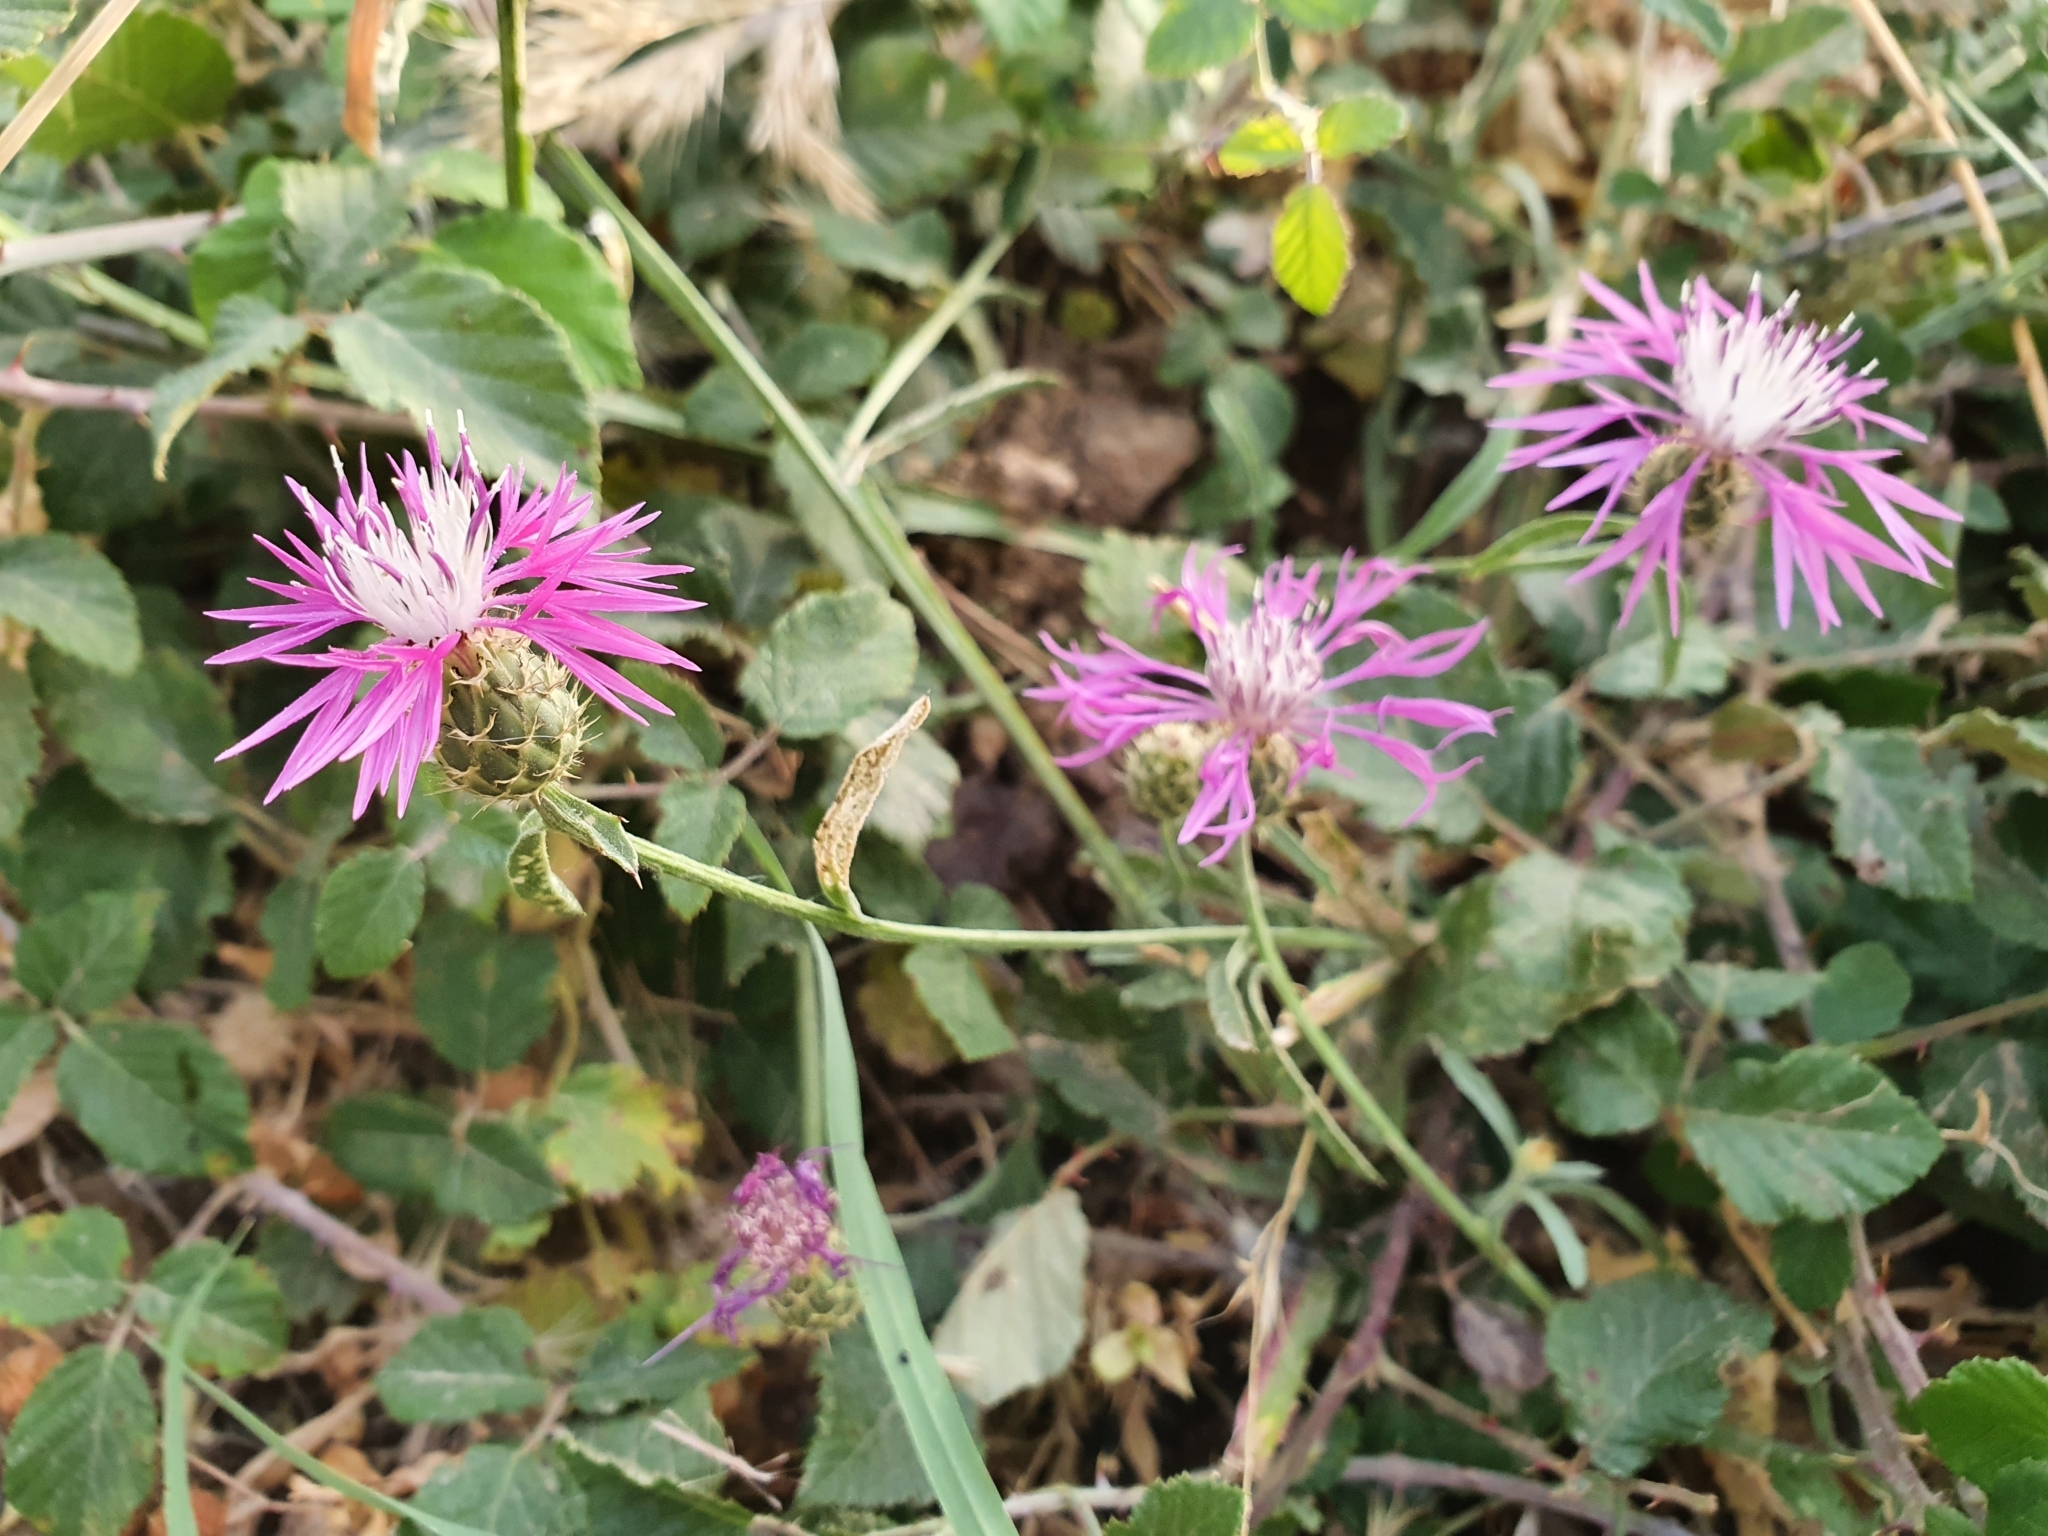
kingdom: Plantae
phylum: Tracheophyta
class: Magnoliopsida
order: Asterales
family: Asteraceae
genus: Centaurea
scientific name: Centaurea napifolia
